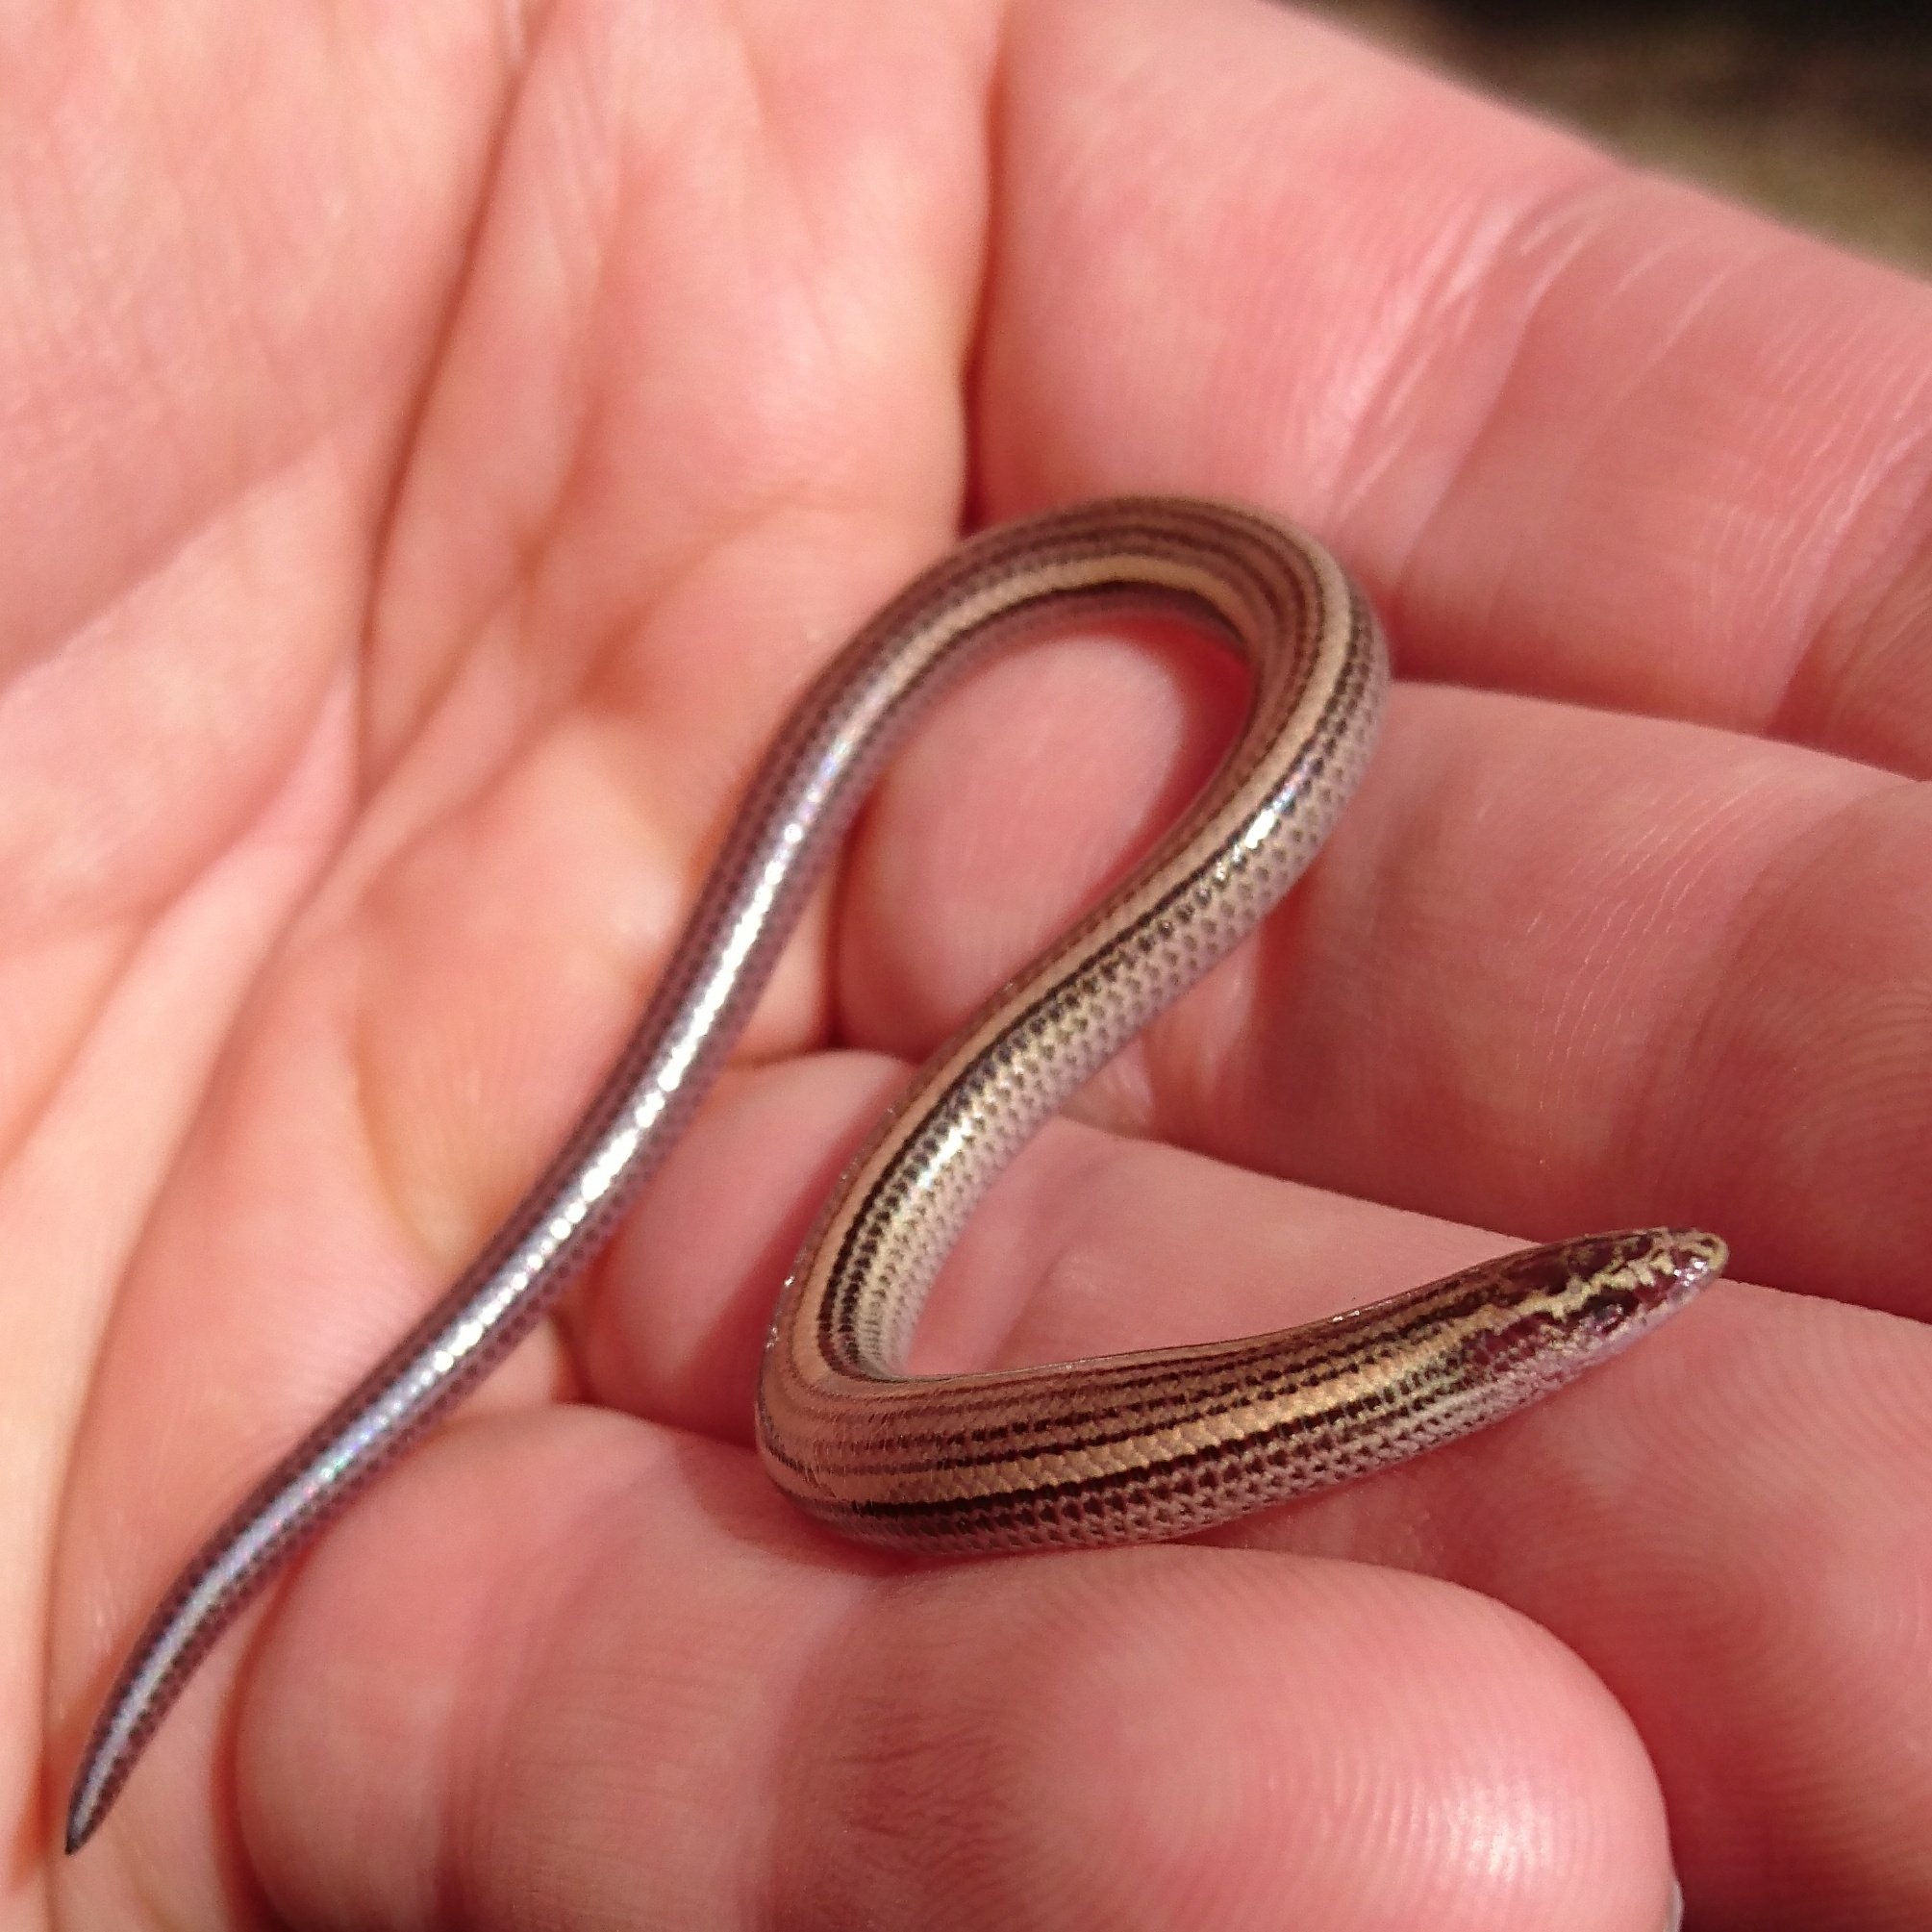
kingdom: Animalia
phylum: Chordata
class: Squamata
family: Scincidae
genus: Scelotes
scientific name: Scelotes mossambicus
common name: Mozambique dwarf burrowing skink
